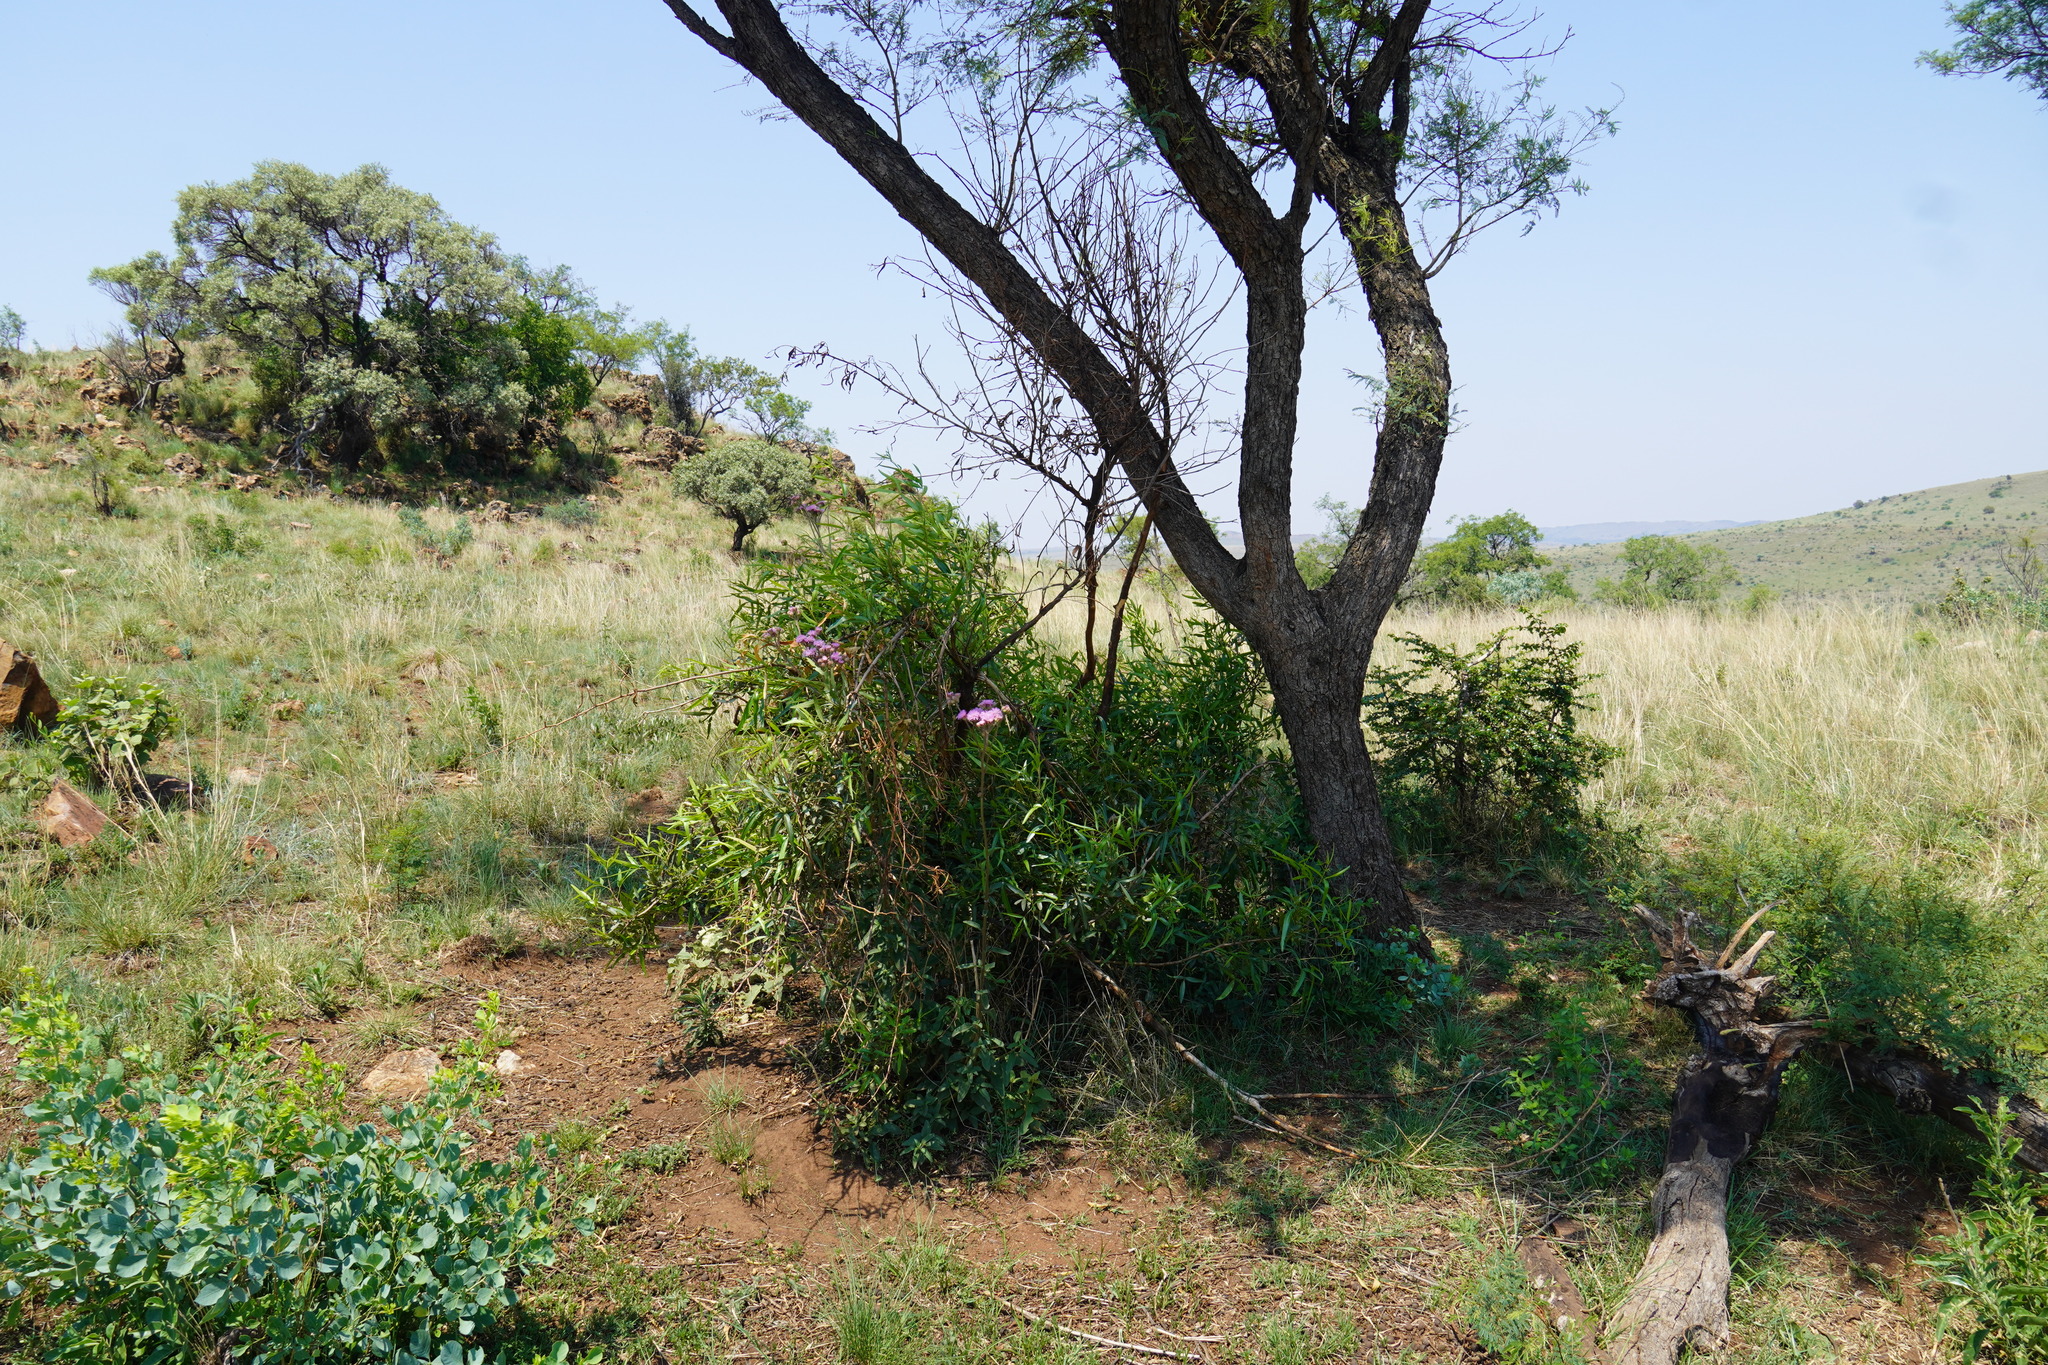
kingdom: Plantae
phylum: Tracheophyta
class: Magnoliopsida
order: Asterales
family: Asteraceae
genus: Campuloclinium
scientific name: Campuloclinium macrocephalum
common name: Pompomweed
